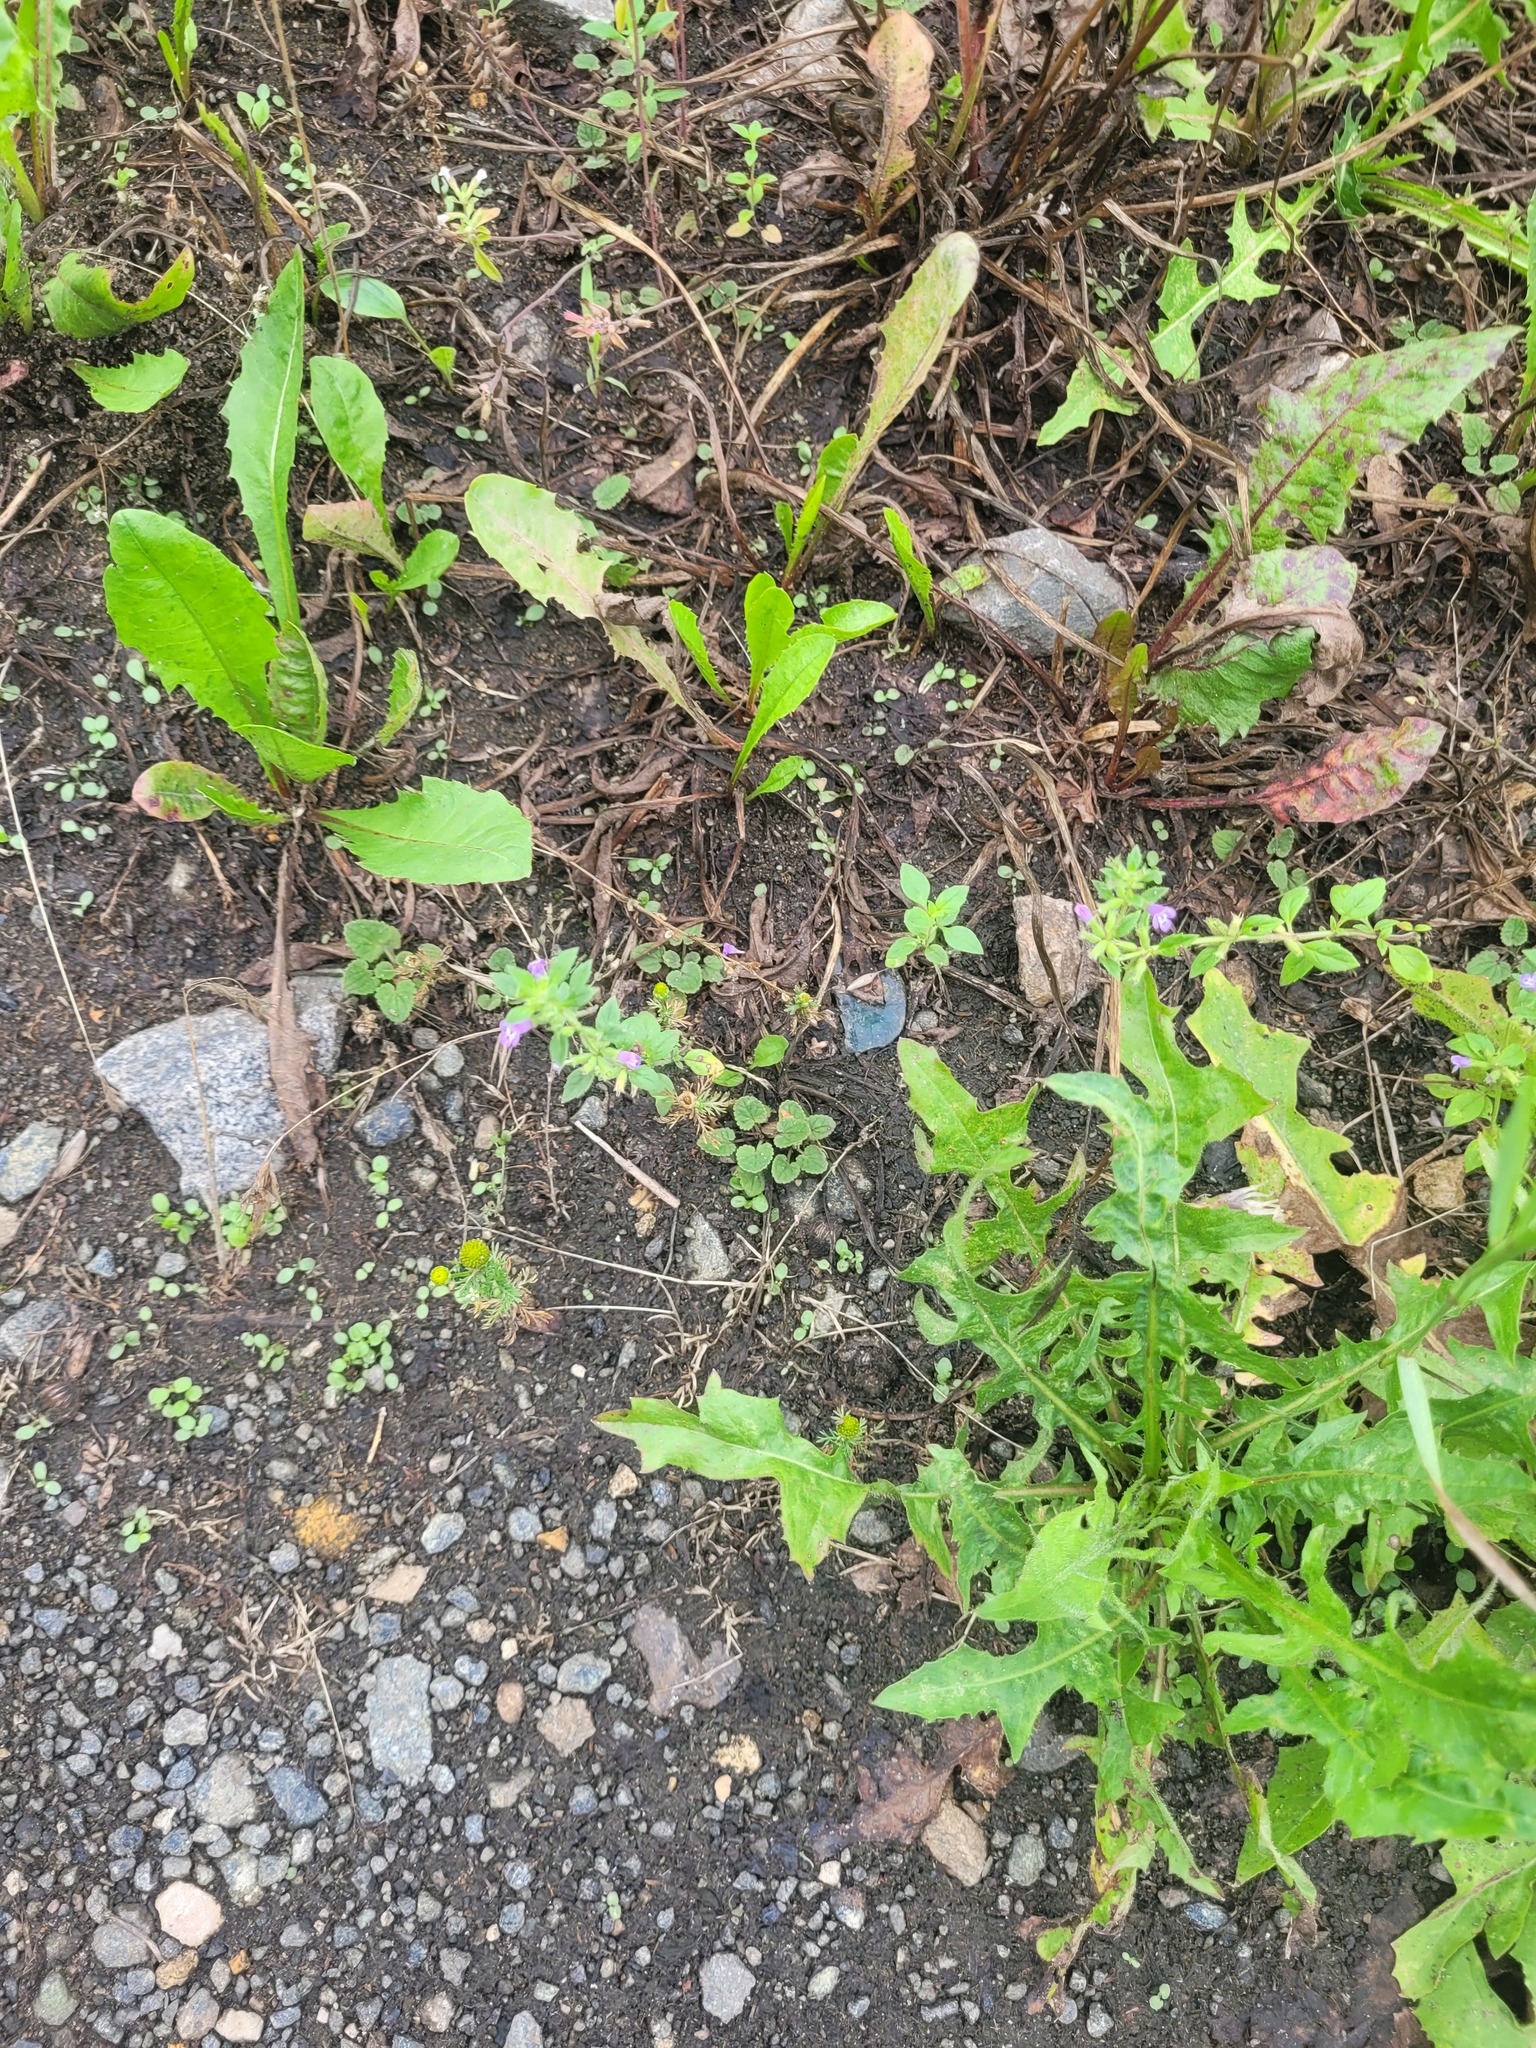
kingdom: Plantae
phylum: Tracheophyta
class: Magnoliopsida
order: Lamiales
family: Lamiaceae
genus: Clinopodium
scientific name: Clinopodium acinos
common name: Basil thyme
